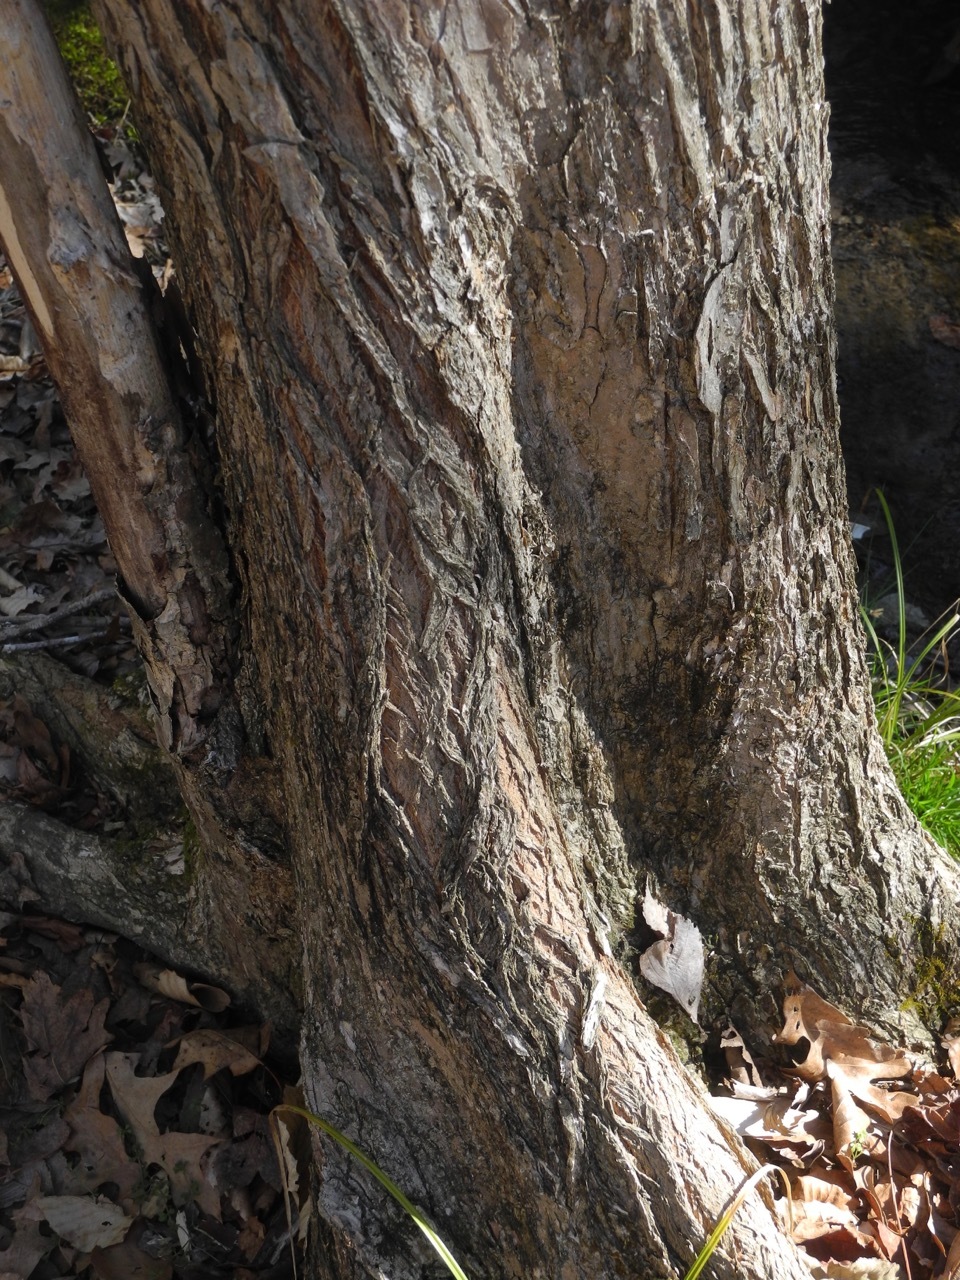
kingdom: Plantae
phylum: Tracheophyta
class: Magnoliopsida
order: Rosales
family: Ulmaceae
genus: Ulmus
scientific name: Ulmus rubra
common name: Slippery elm
